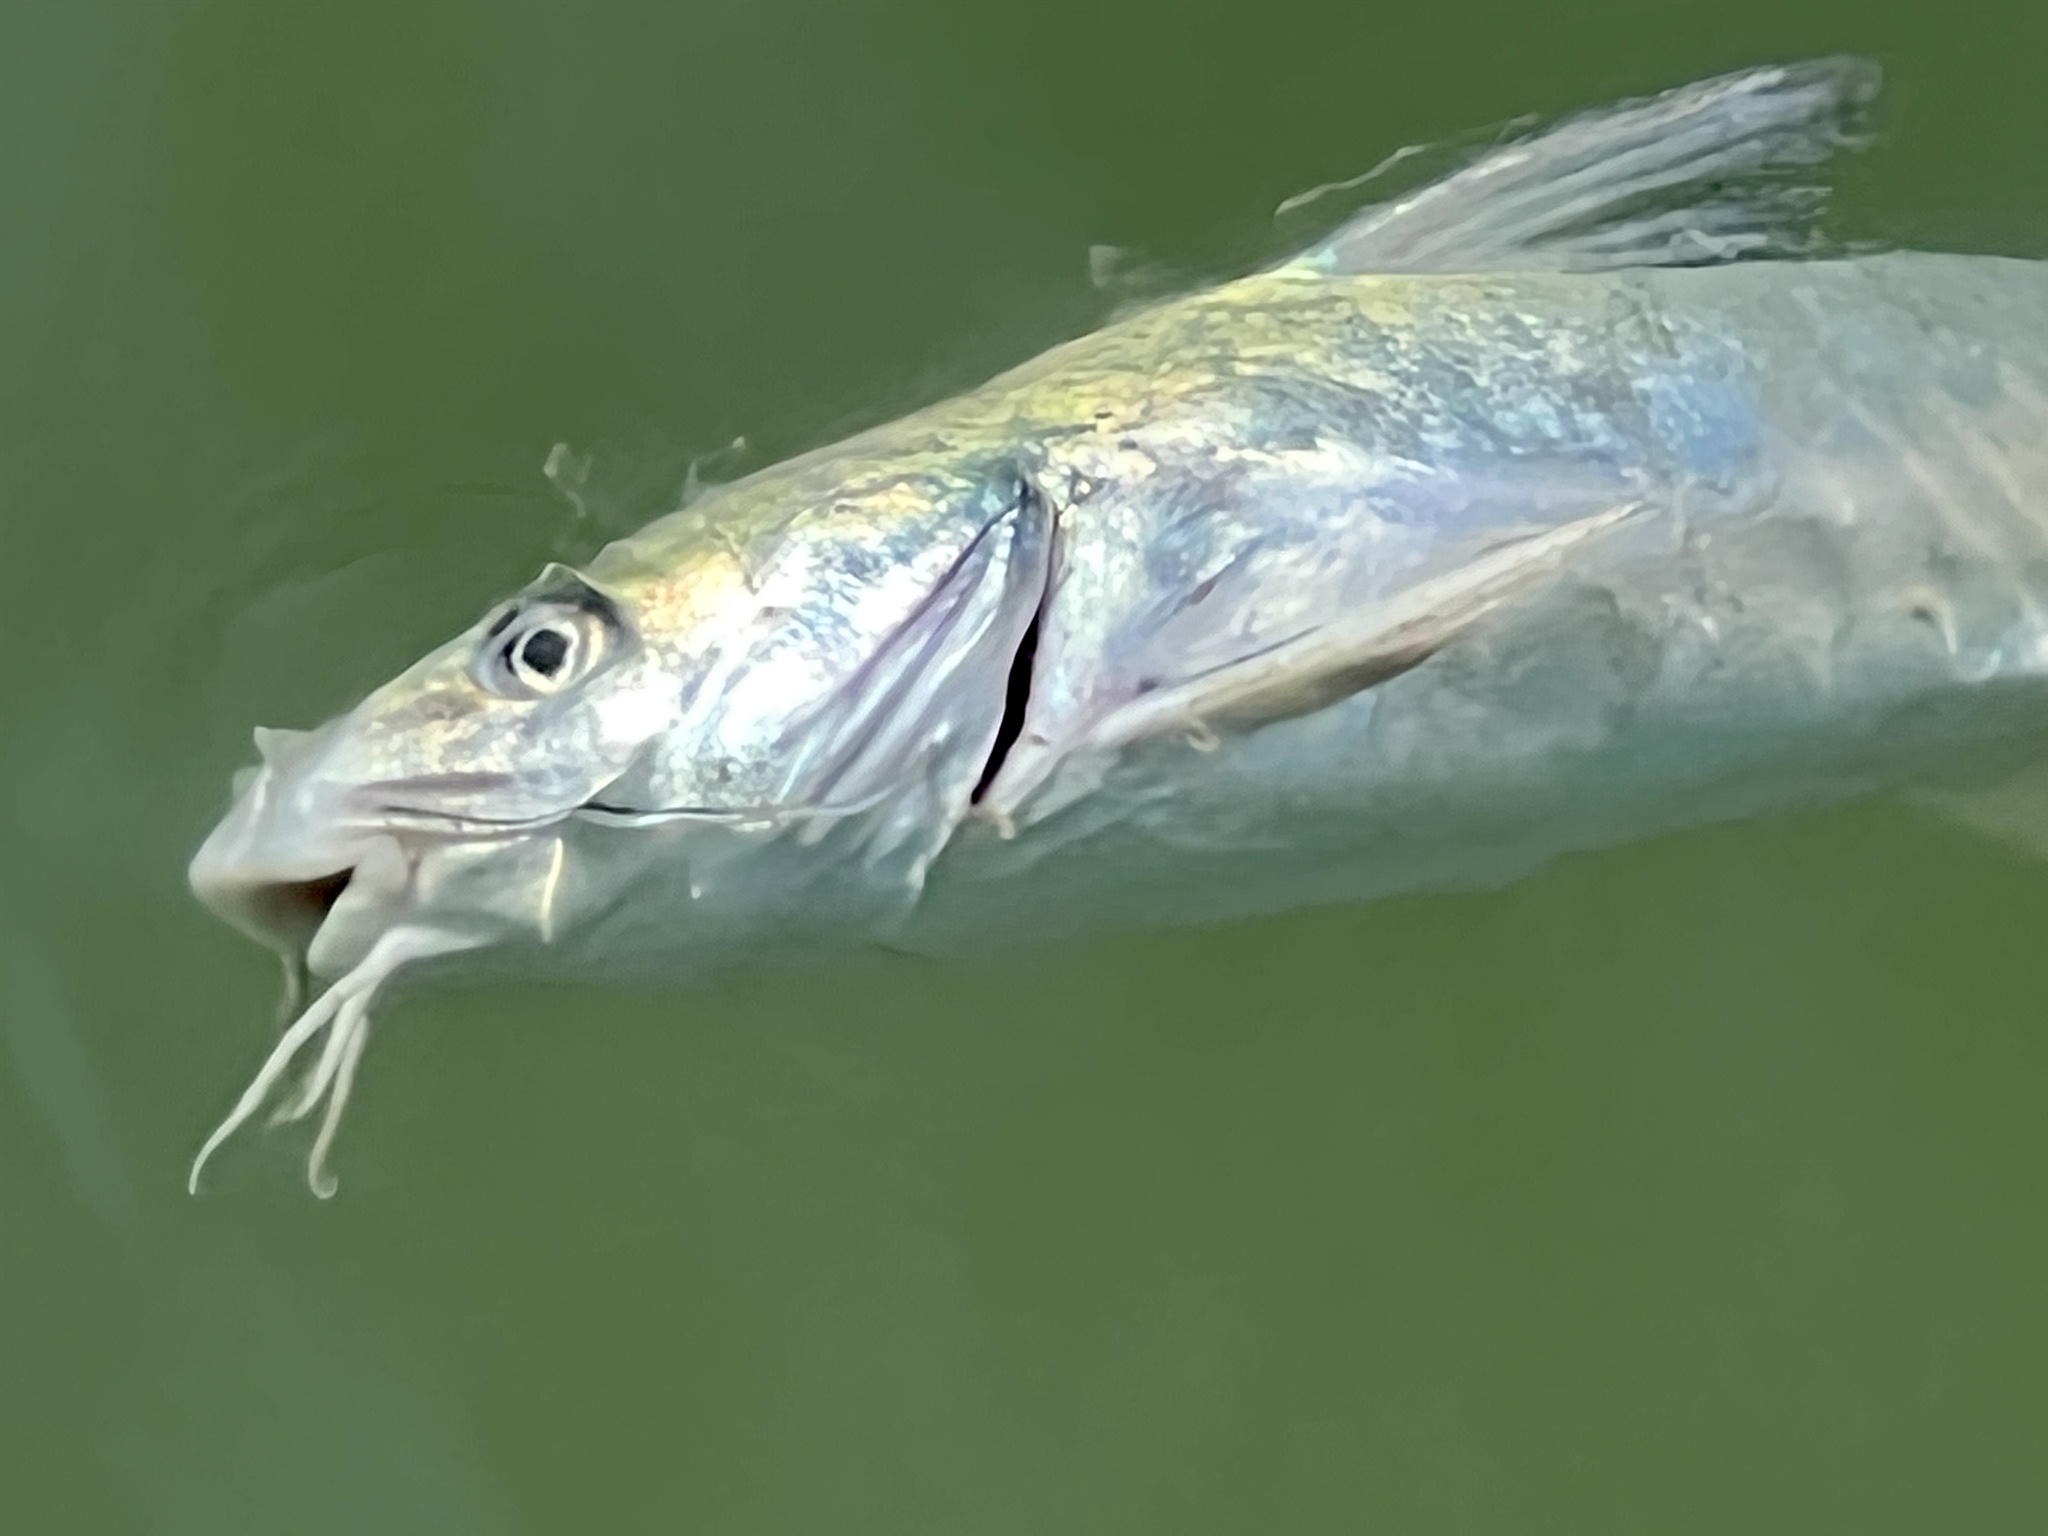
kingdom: Animalia
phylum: Chordata
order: Siluriformes
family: Ariidae
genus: Ariopsis
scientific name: Ariopsis felis
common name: Hardhead catfish
